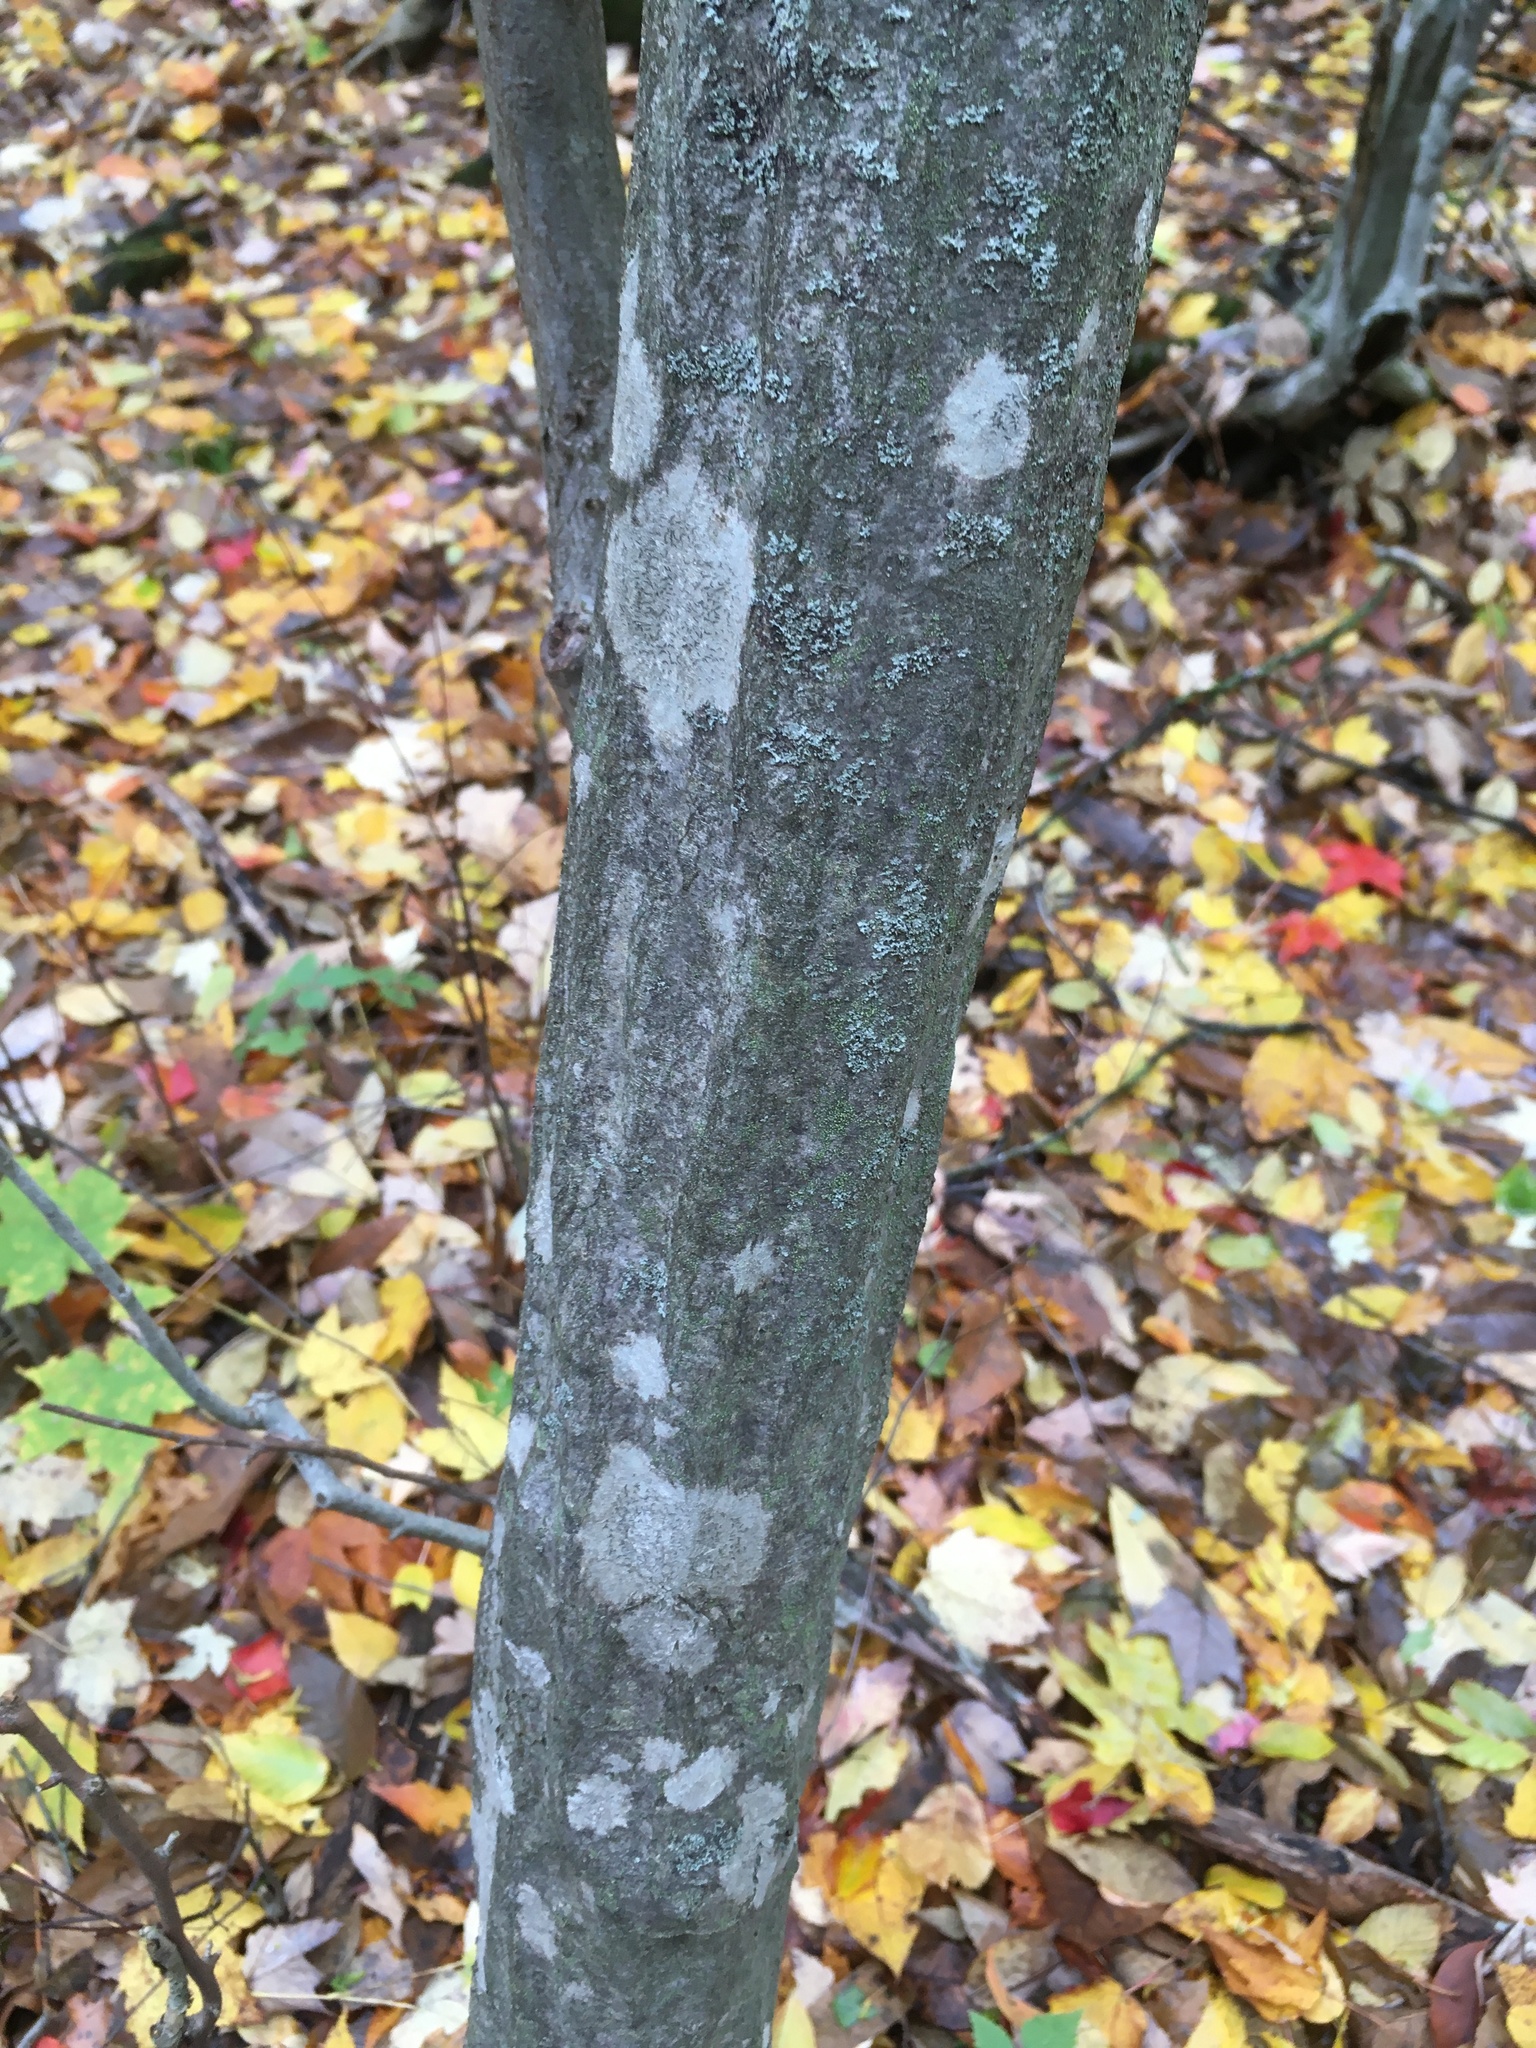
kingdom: Plantae
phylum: Tracheophyta
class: Magnoliopsida
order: Fagales
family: Betulaceae
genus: Carpinus
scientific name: Carpinus caroliniana
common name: American hornbeam
